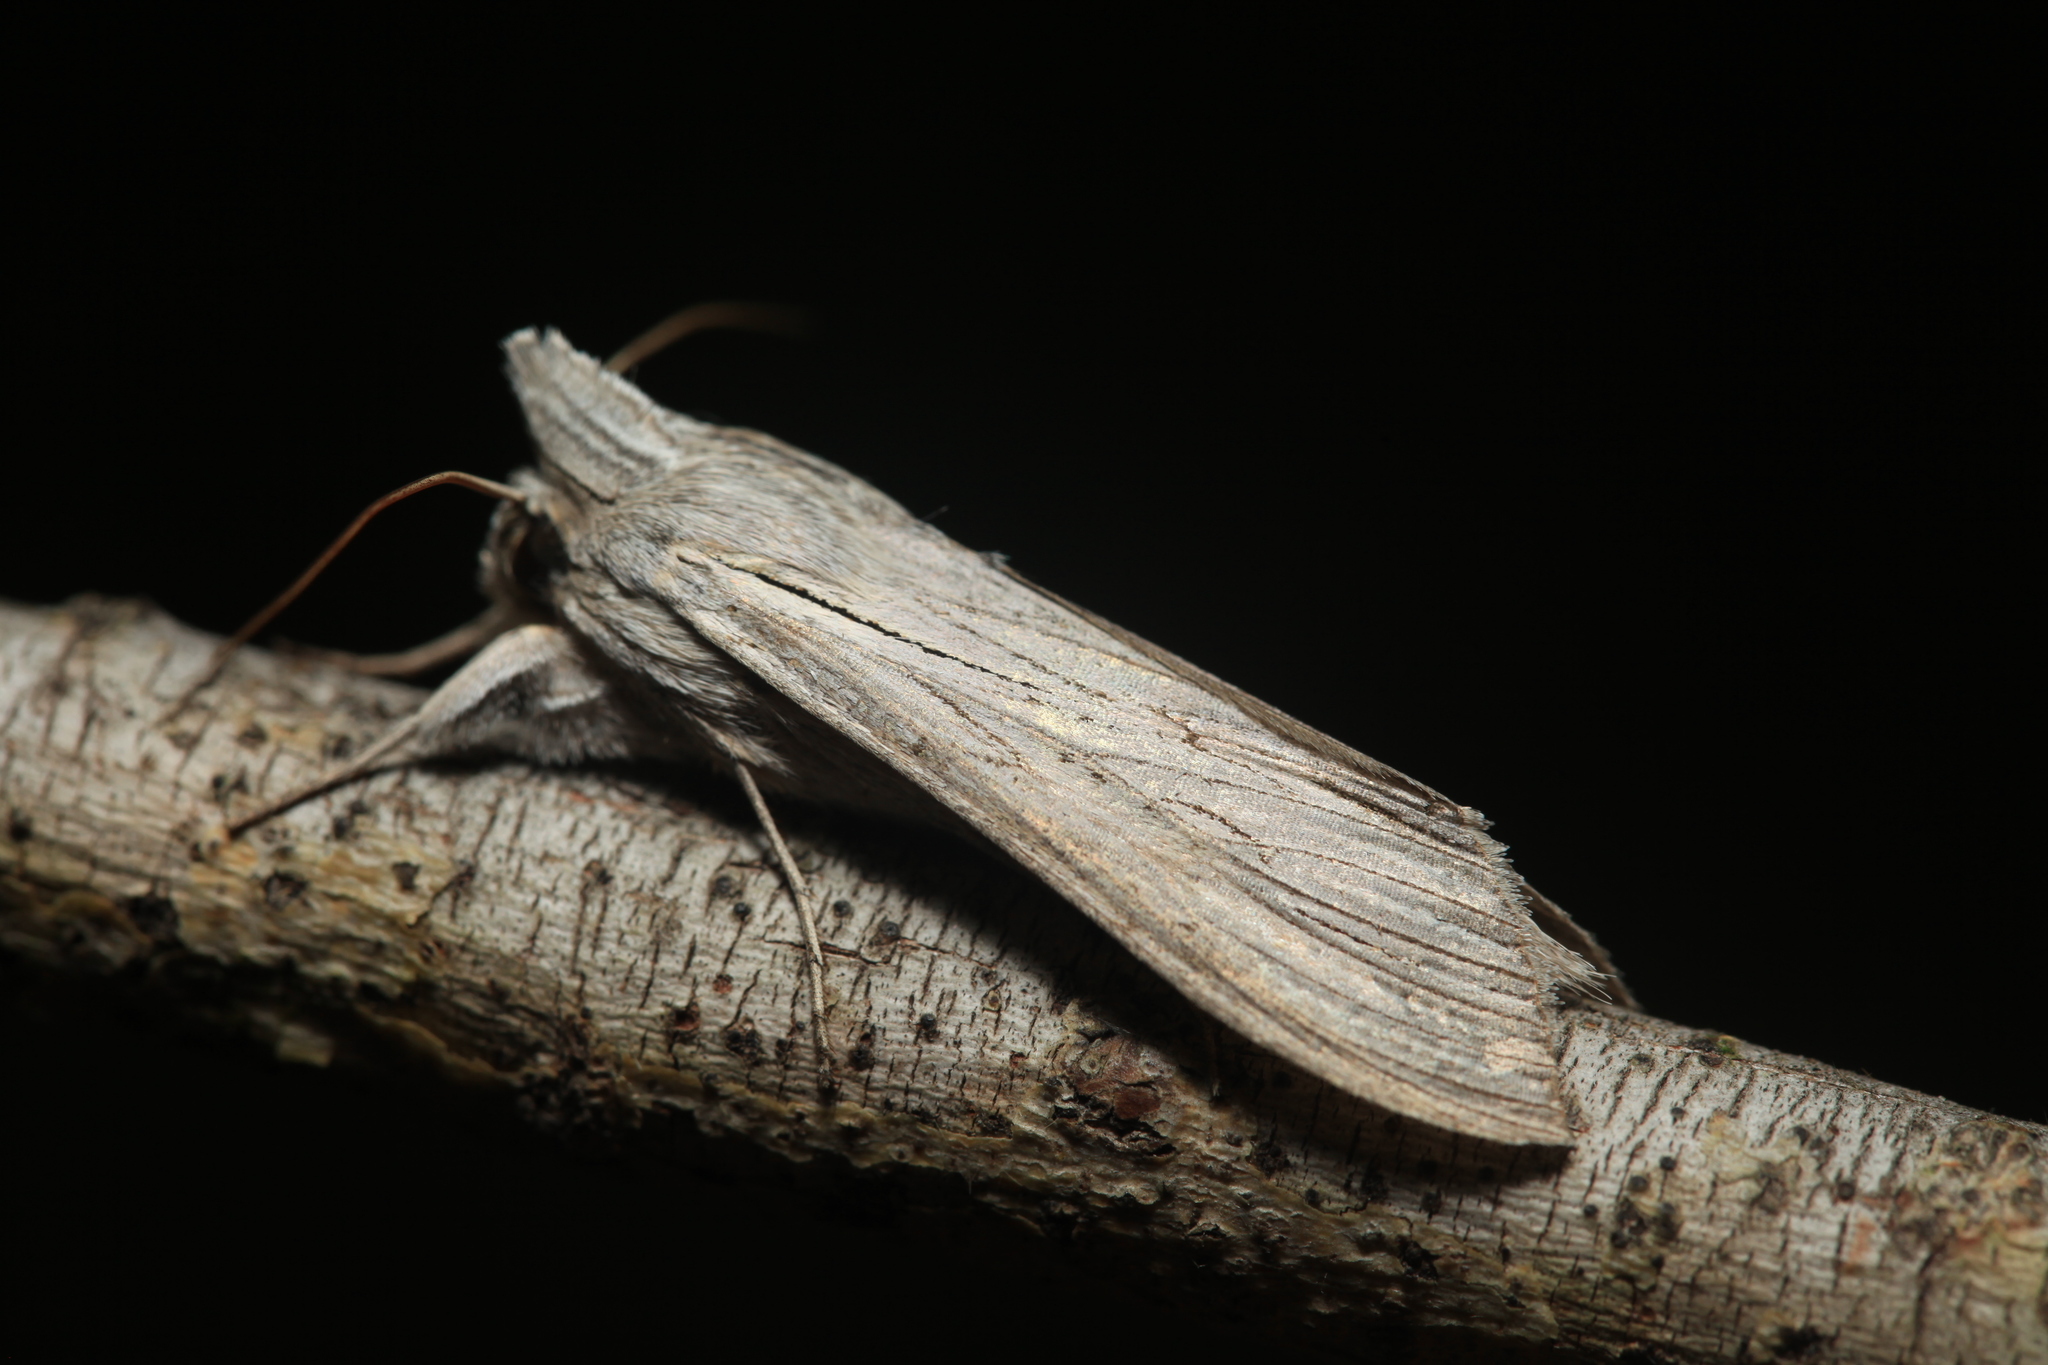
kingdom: Animalia
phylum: Arthropoda
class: Insecta
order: Lepidoptera
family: Noctuidae
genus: Cucullia
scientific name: Cucullia umbratica
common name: Shark
